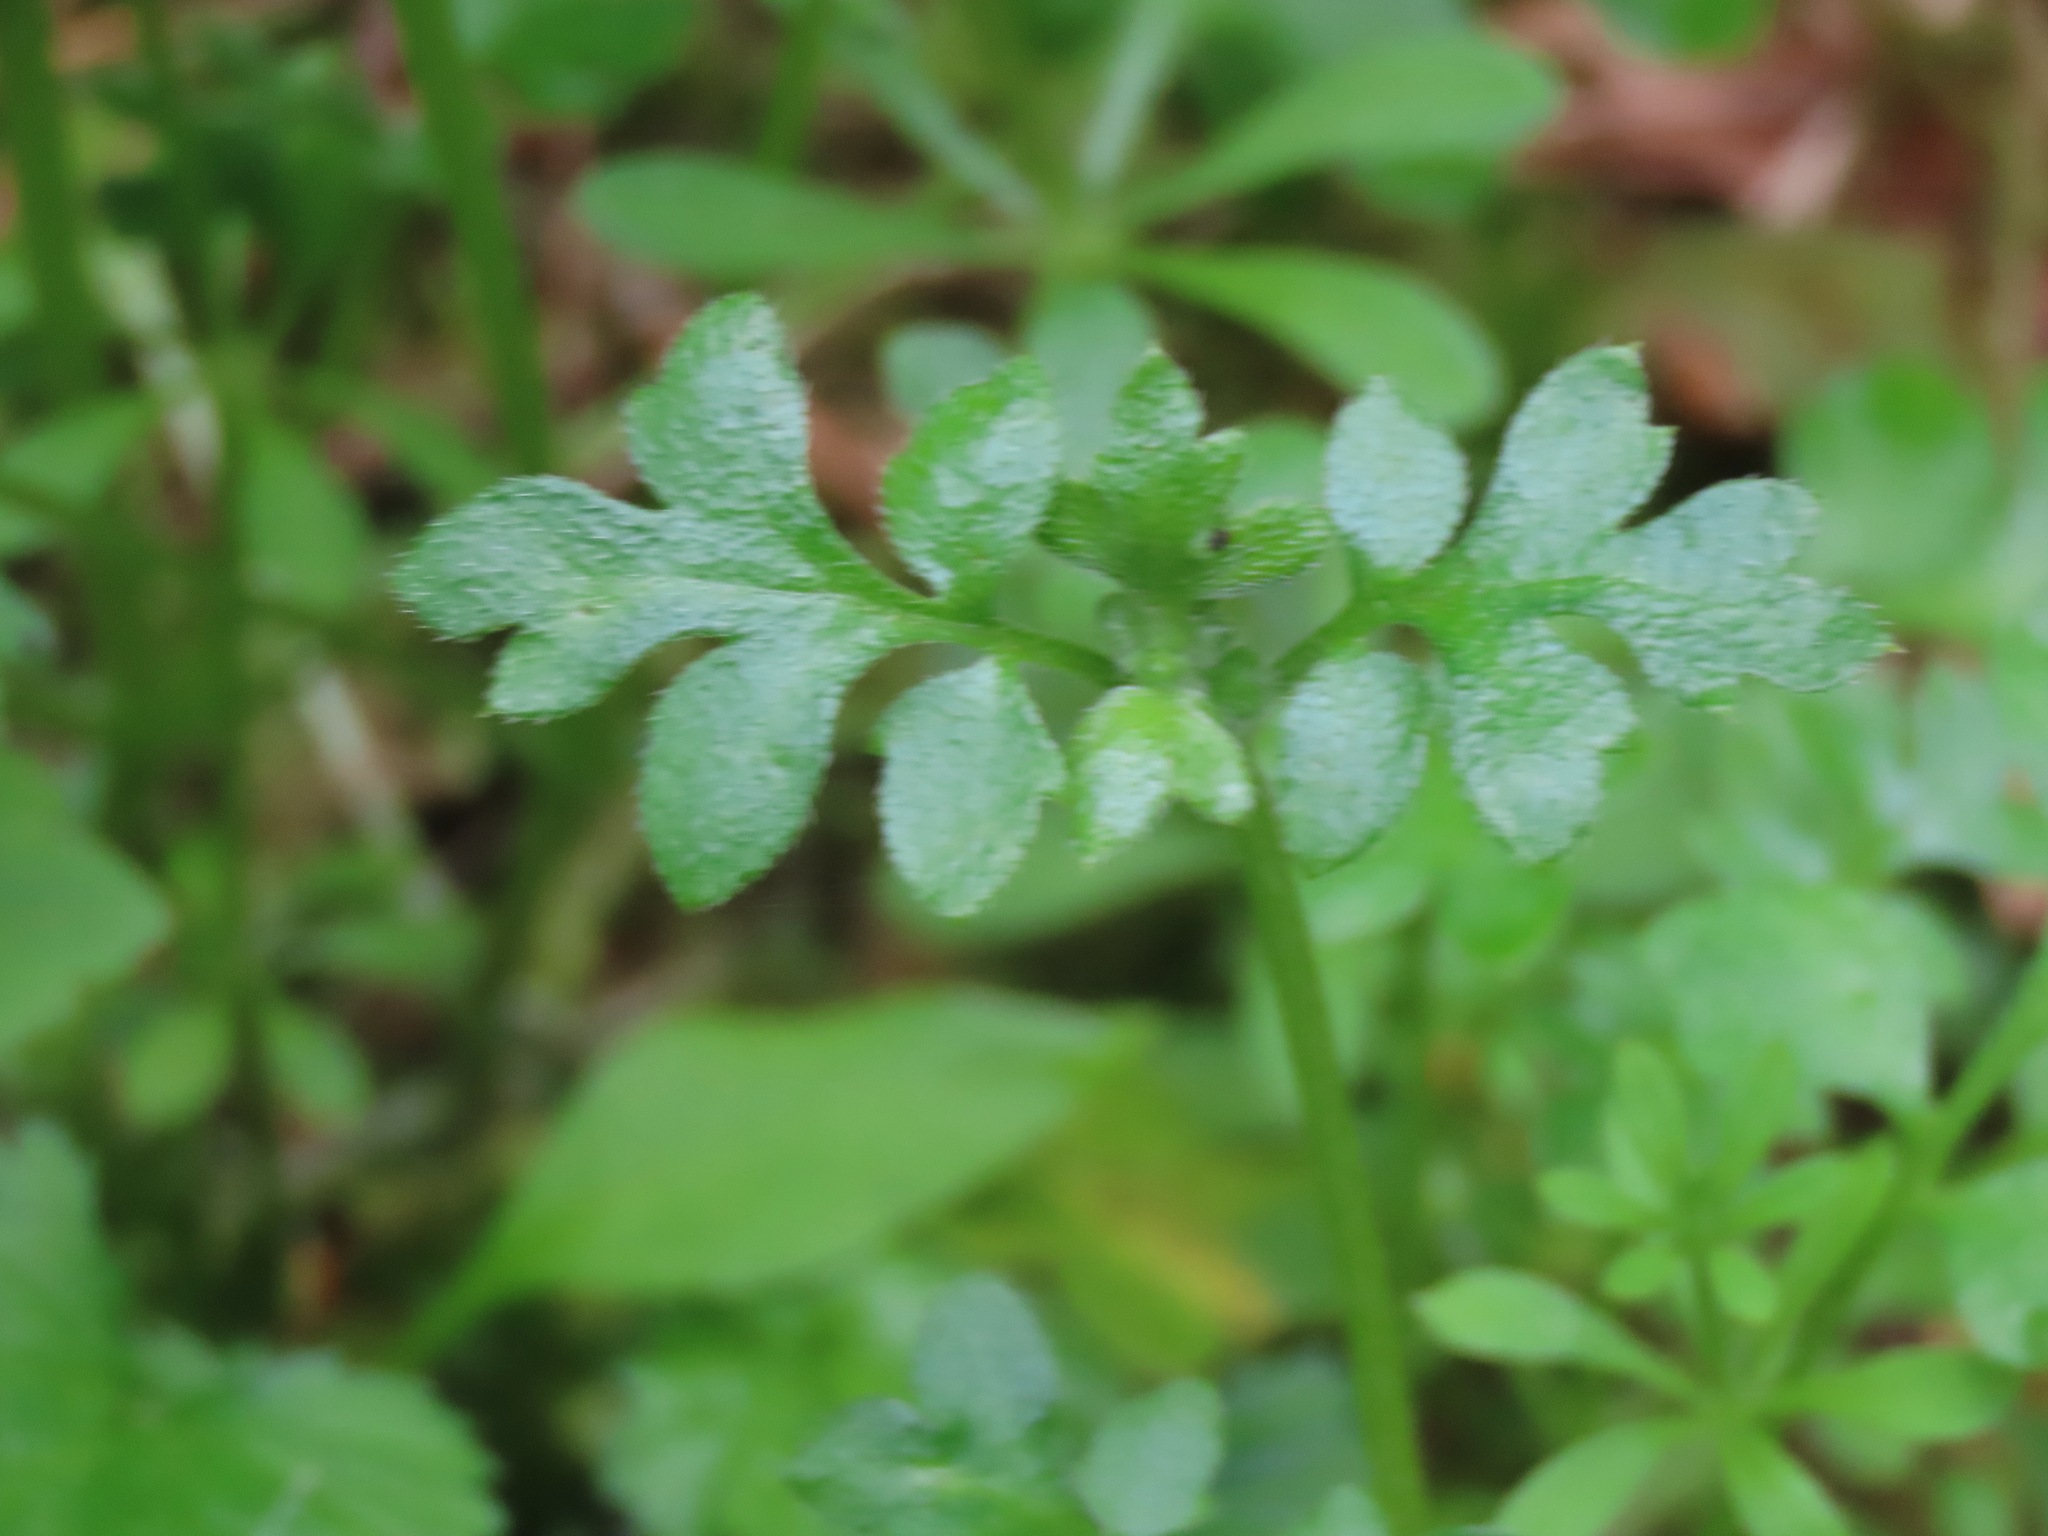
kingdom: Plantae
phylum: Tracheophyta
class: Magnoliopsida
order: Boraginales
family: Hydrophyllaceae
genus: Nemophila
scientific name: Nemophila parviflora
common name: Small-flowered baby-blue-eyes
